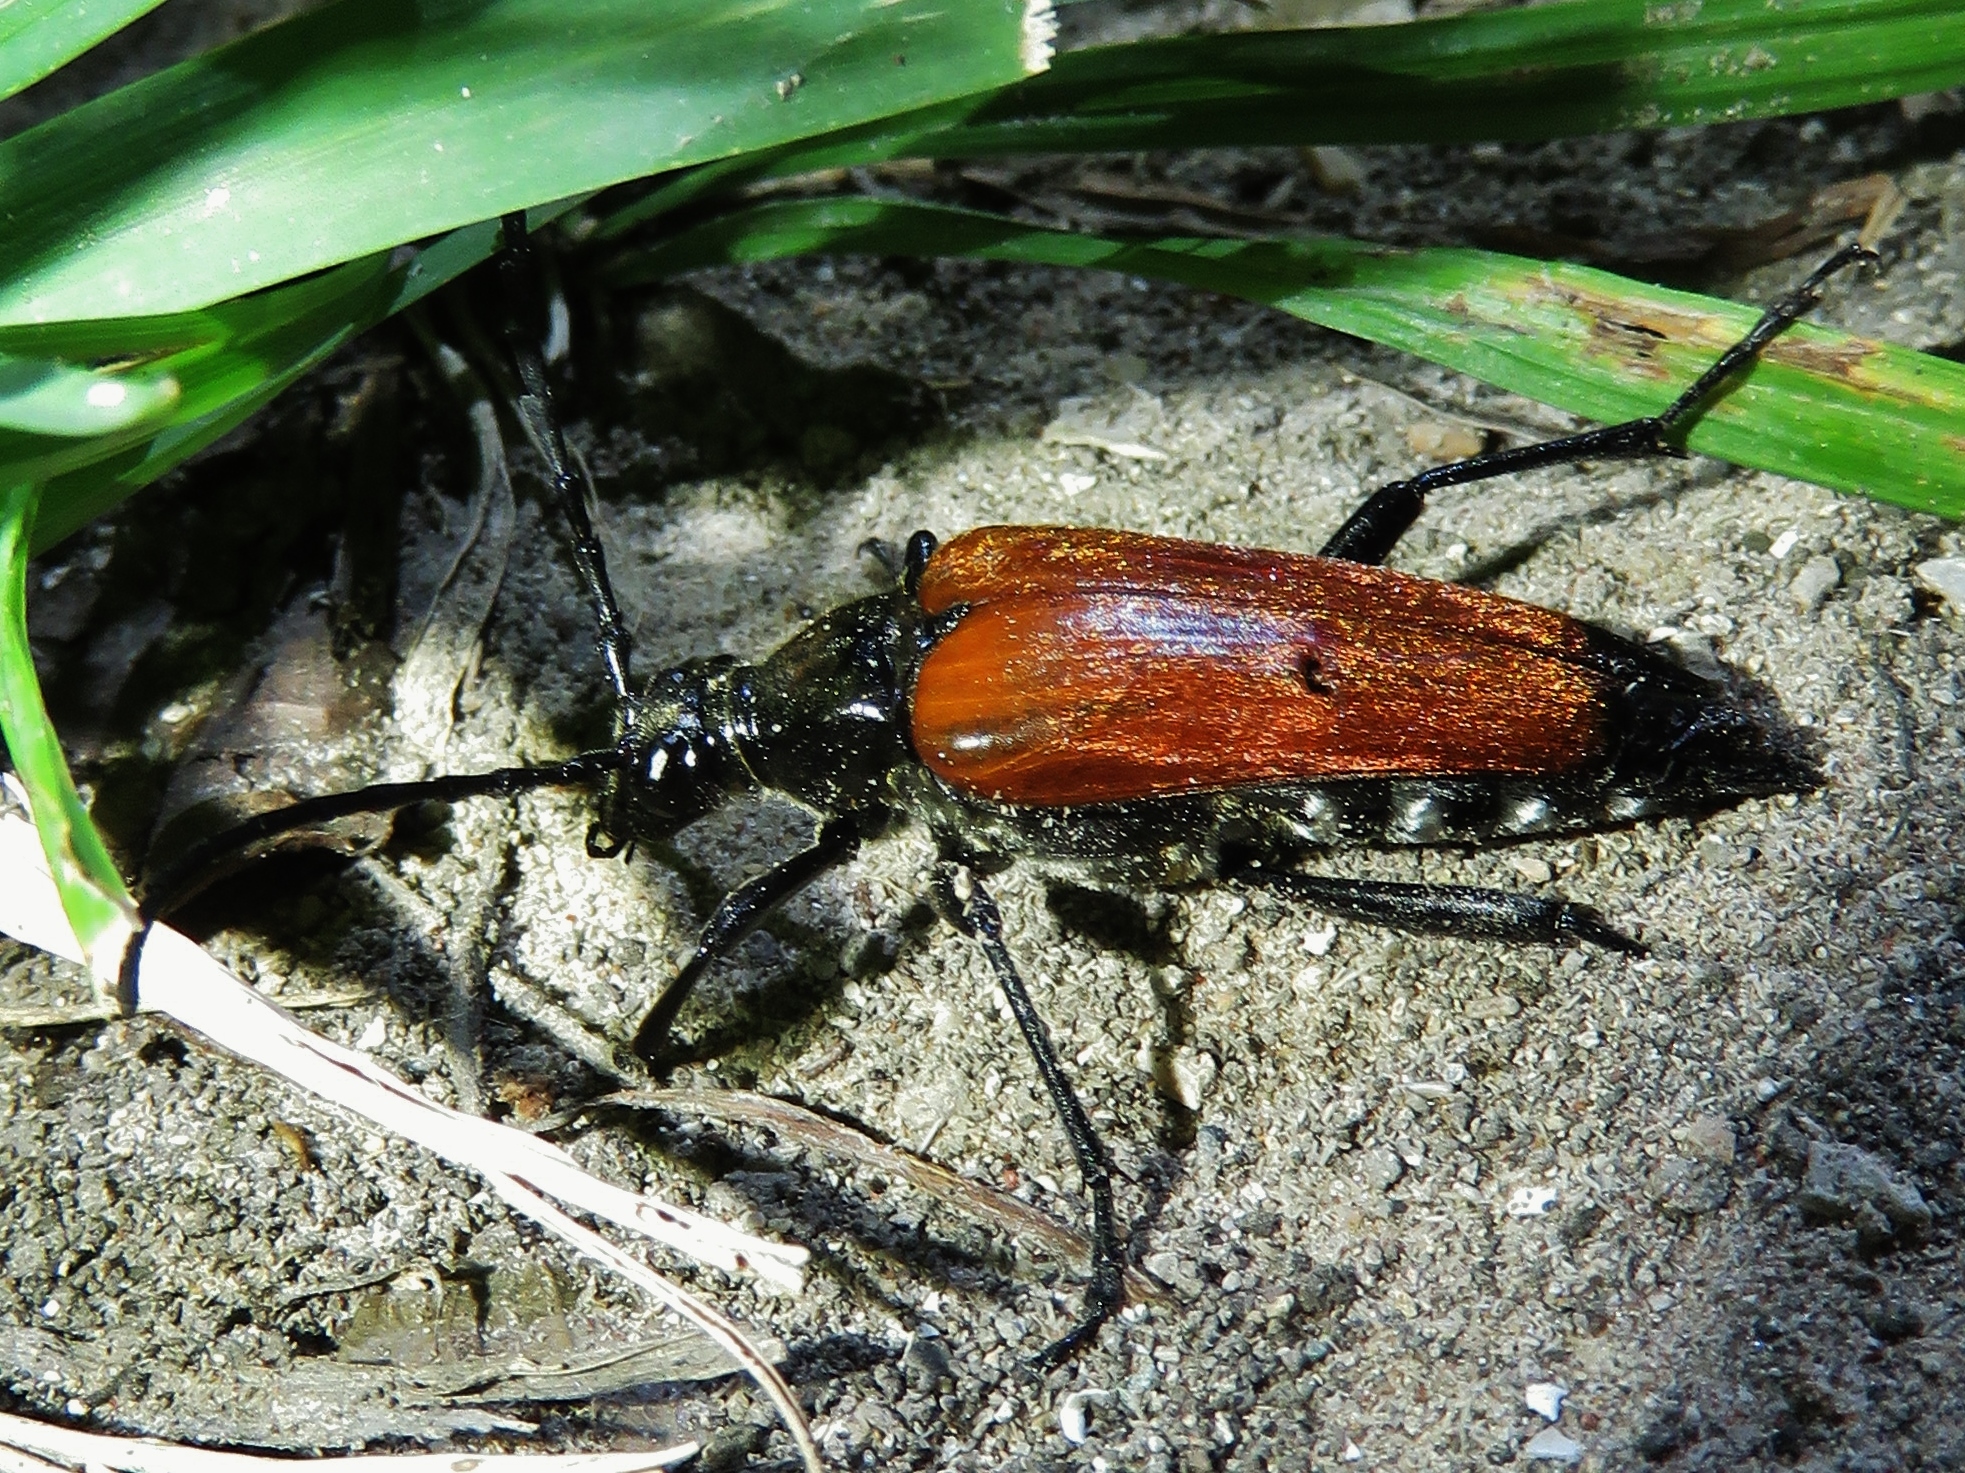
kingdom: Animalia
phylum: Arthropoda
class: Insecta
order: Coleoptera
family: Cerambycidae
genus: Stenelytrana
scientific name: Stenelytrana gigas
